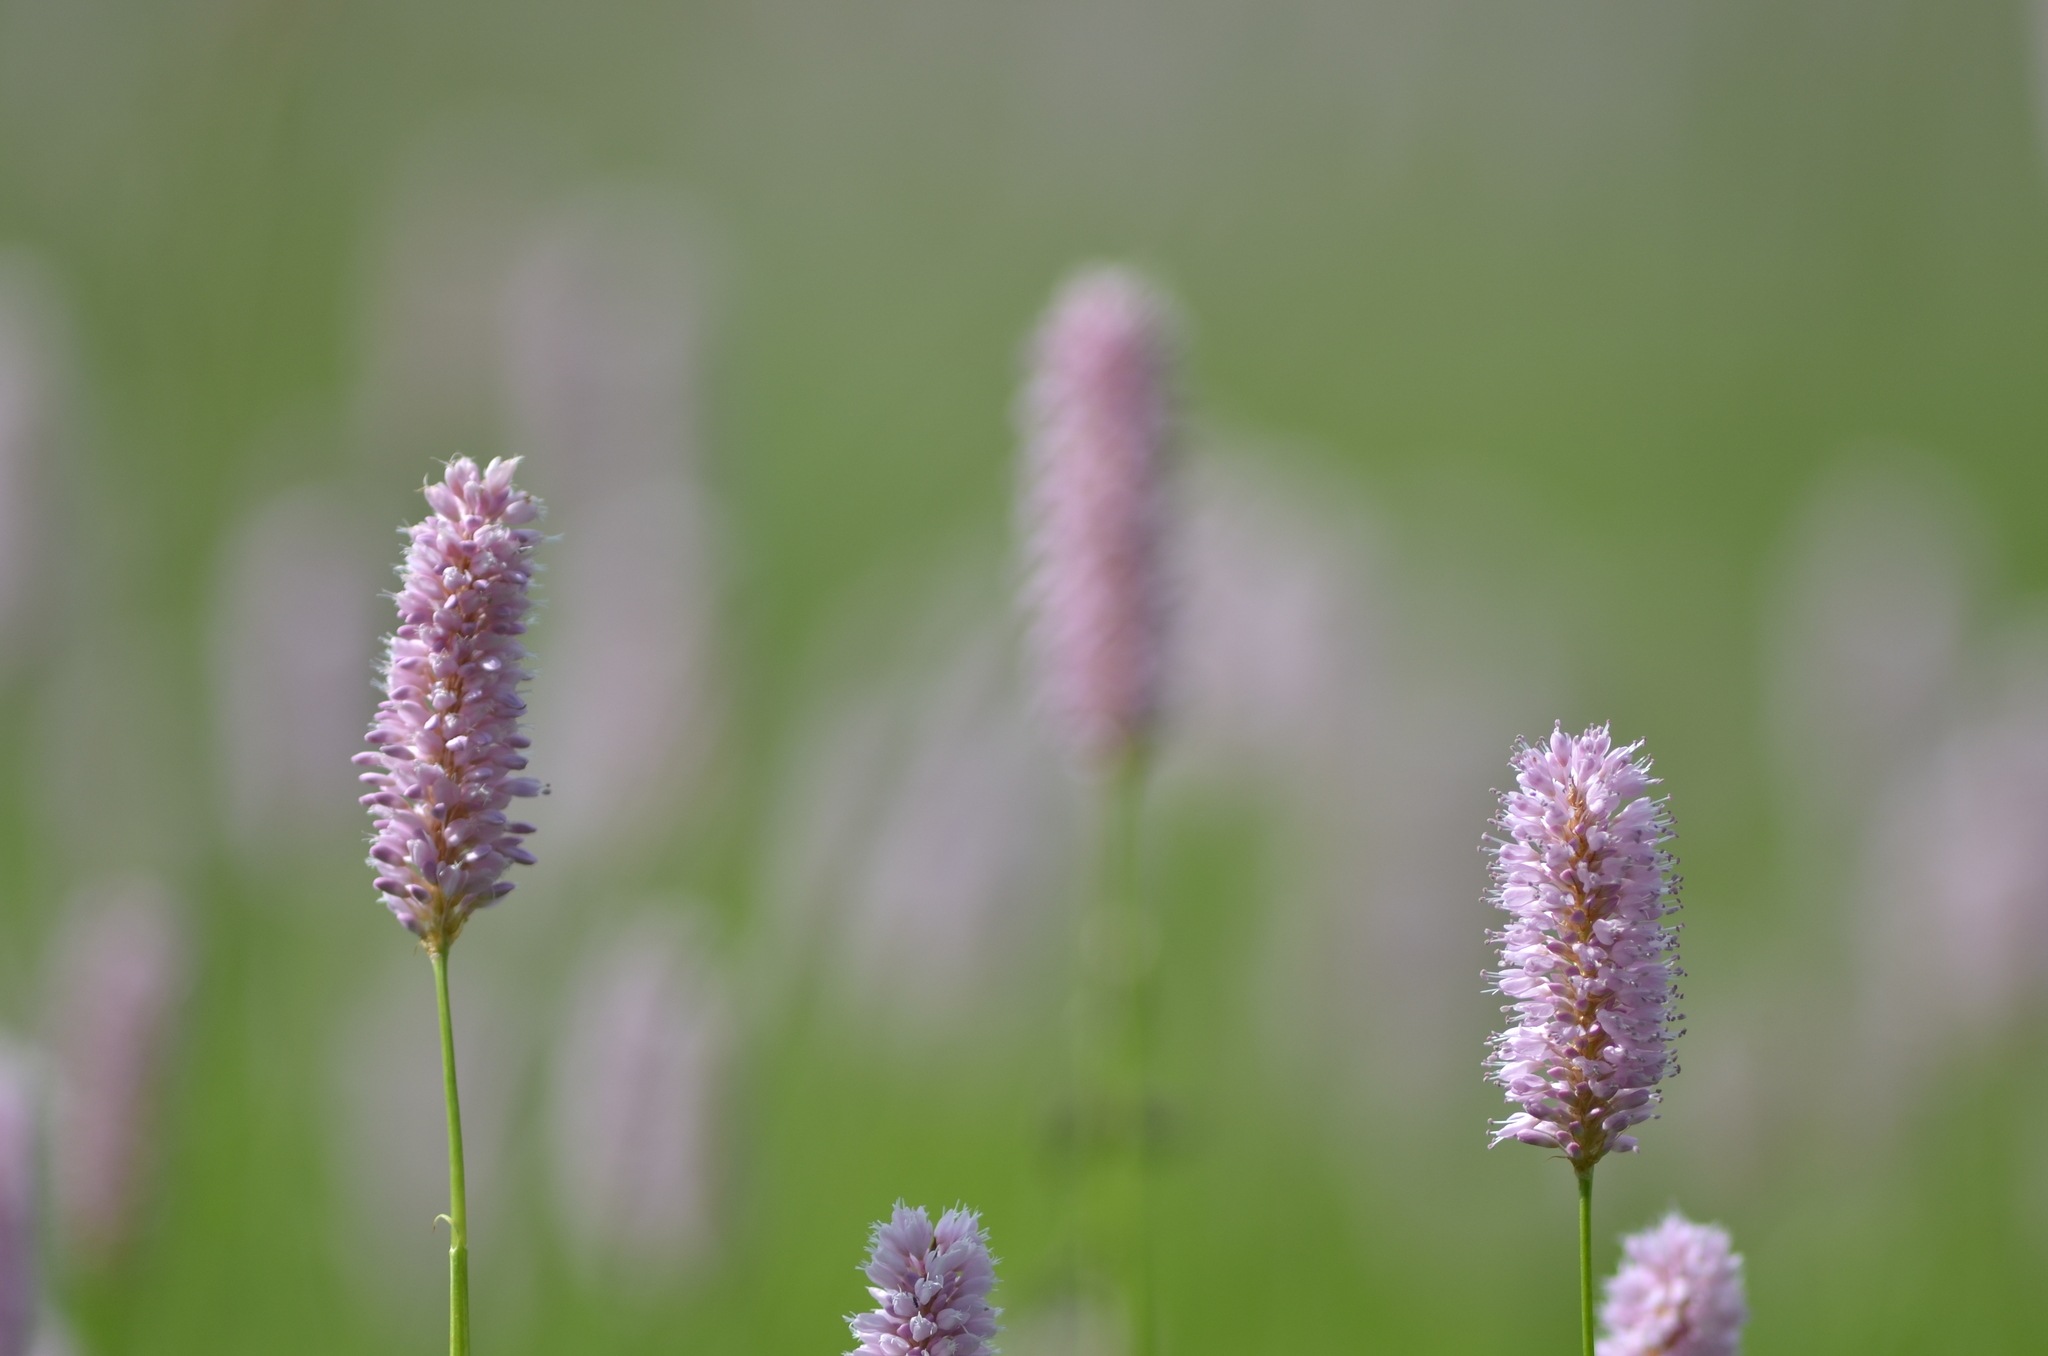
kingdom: Plantae
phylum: Tracheophyta
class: Magnoliopsida
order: Caryophyllales
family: Polygonaceae
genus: Bistorta
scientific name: Bistorta officinalis
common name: Common bistort
